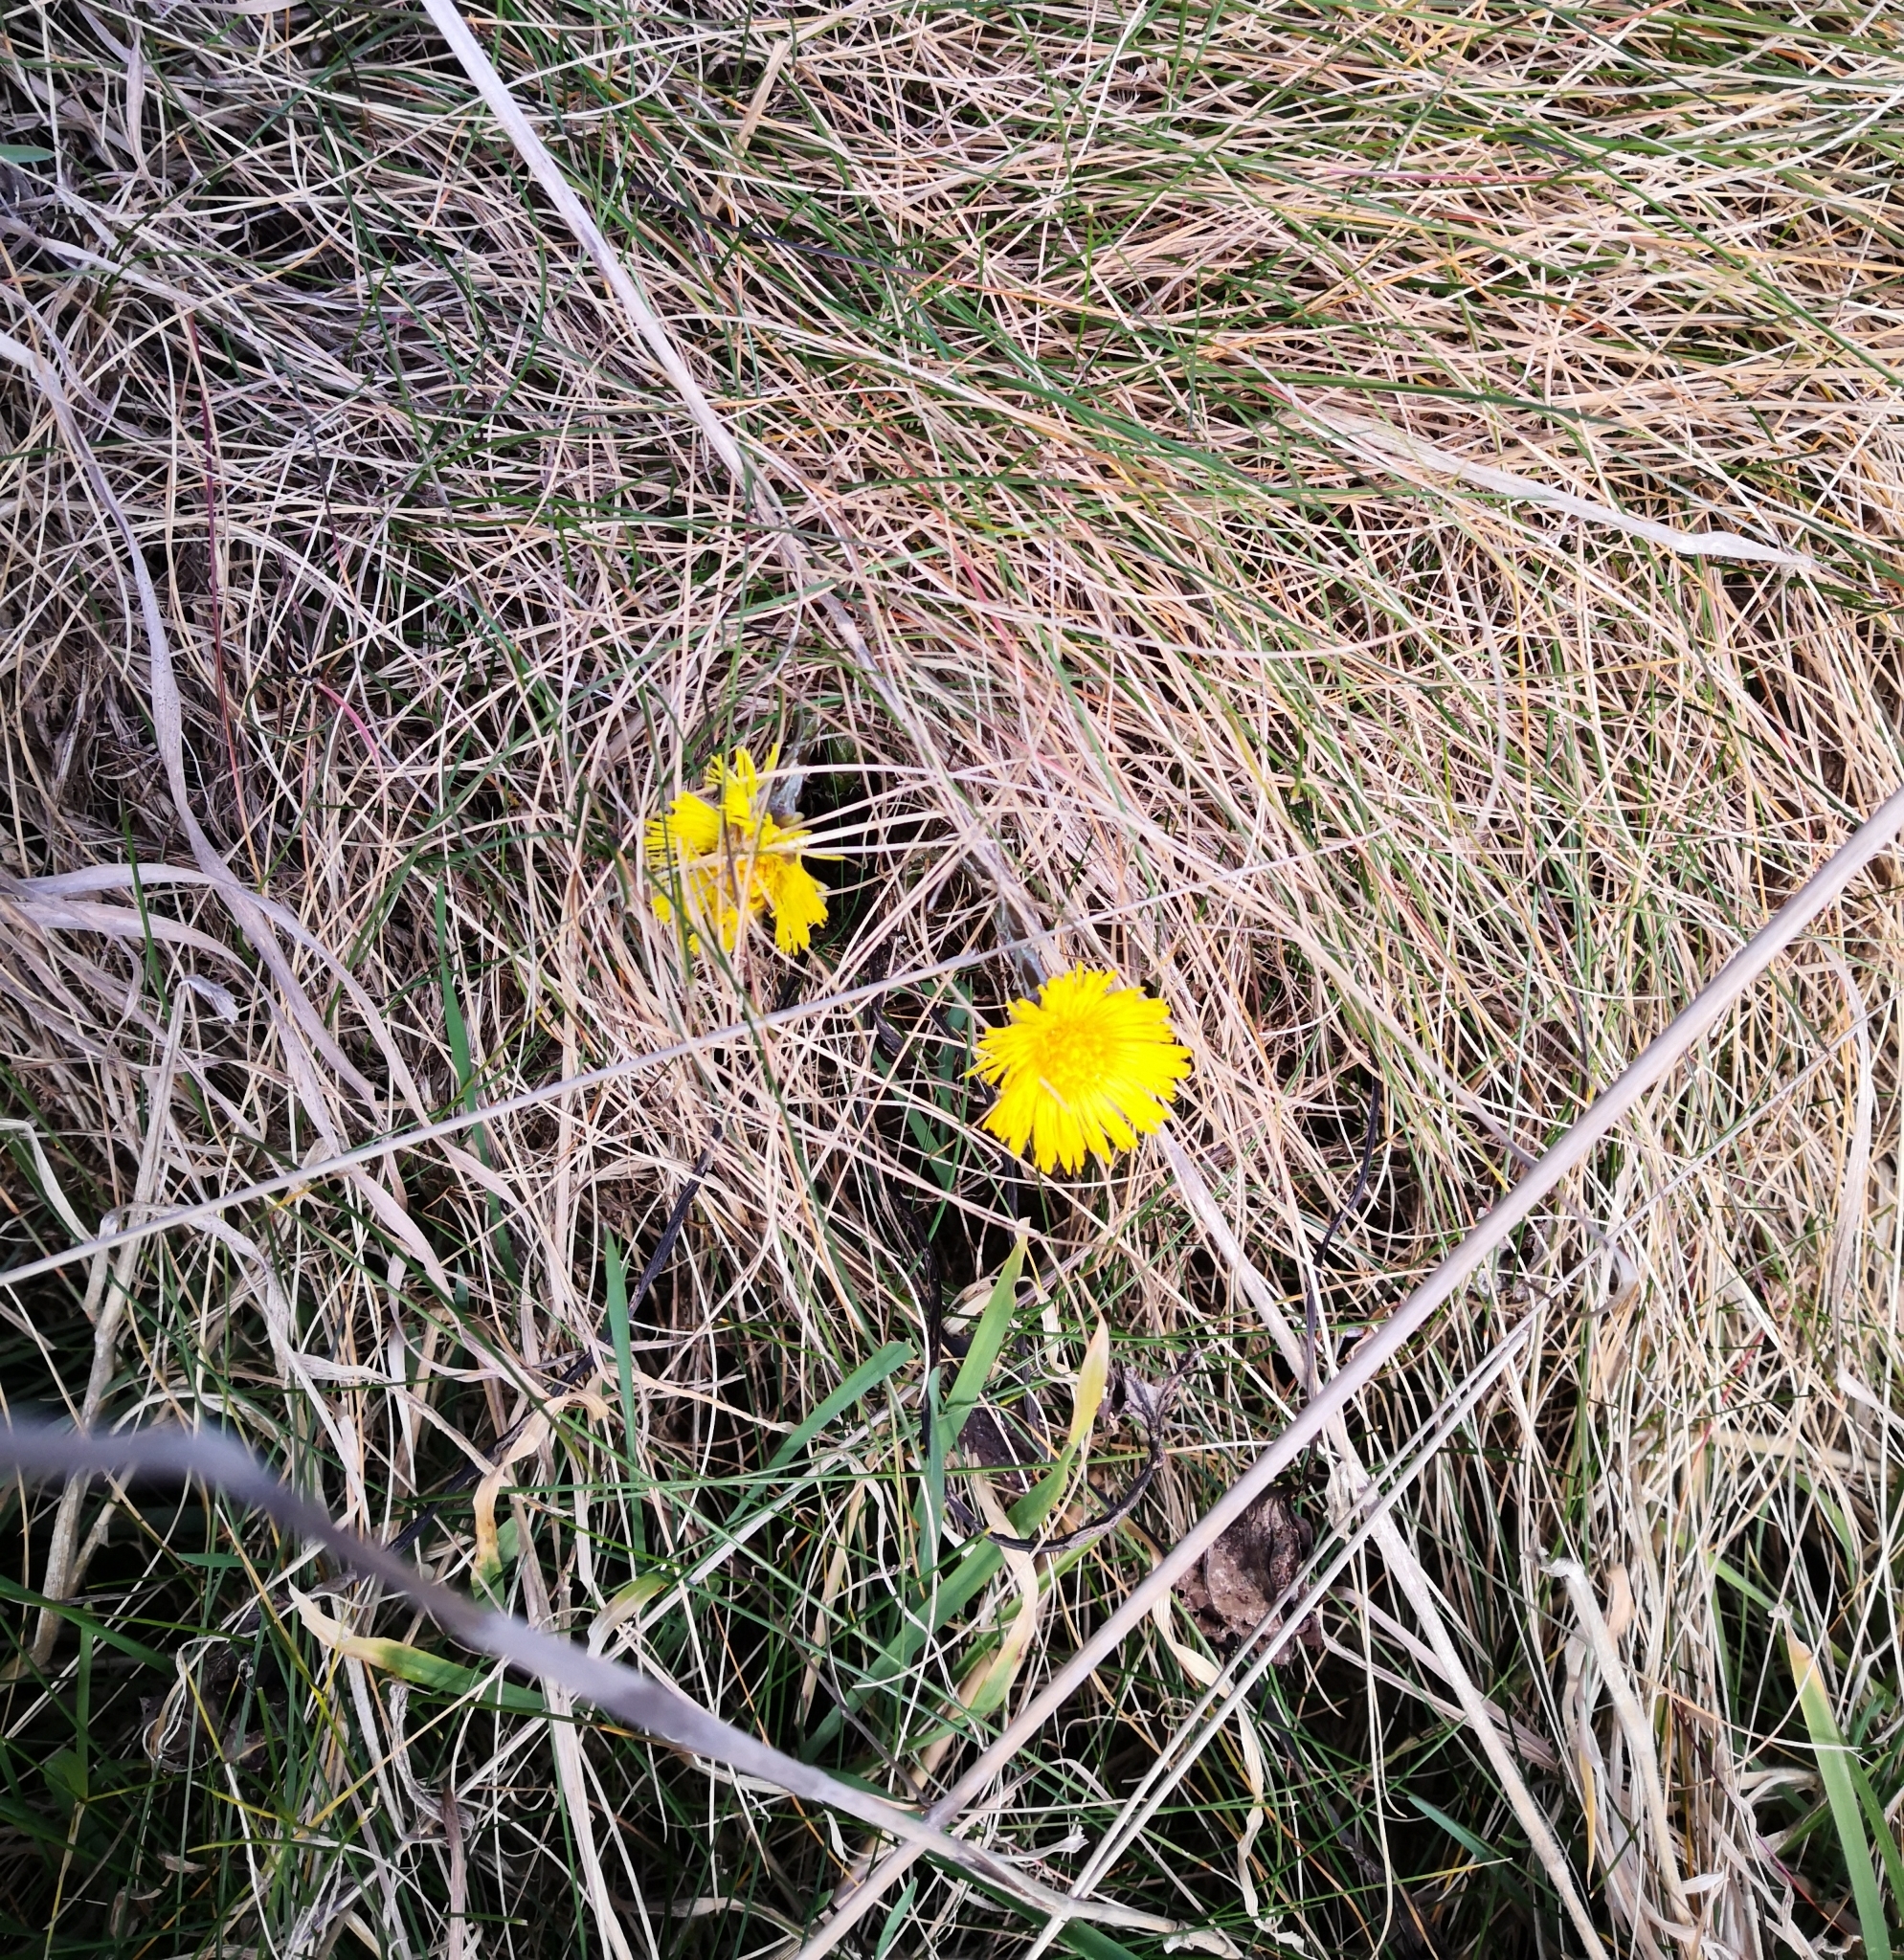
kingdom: Plantae
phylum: Tracheophyta
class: Magnoliopsida
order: Asterales
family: Asteraceae
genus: Tussilago
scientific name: Tussilago farfara
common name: Coltsfoot
